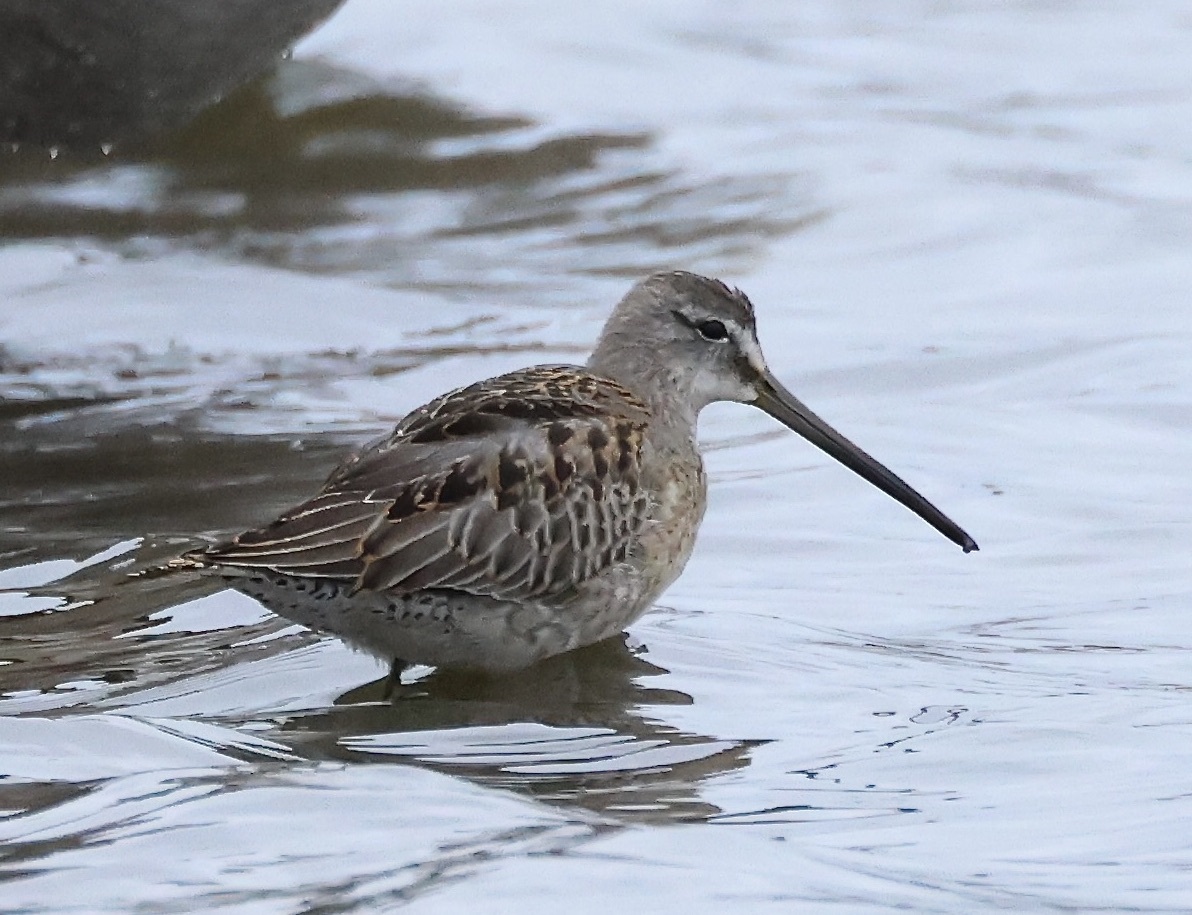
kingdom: Animalia
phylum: Chordata
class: Aves
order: Charadriiformes
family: Scolopacidae
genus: Limnodromus
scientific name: Limnodromus scolopaceus
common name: Long-billed dowitcher
